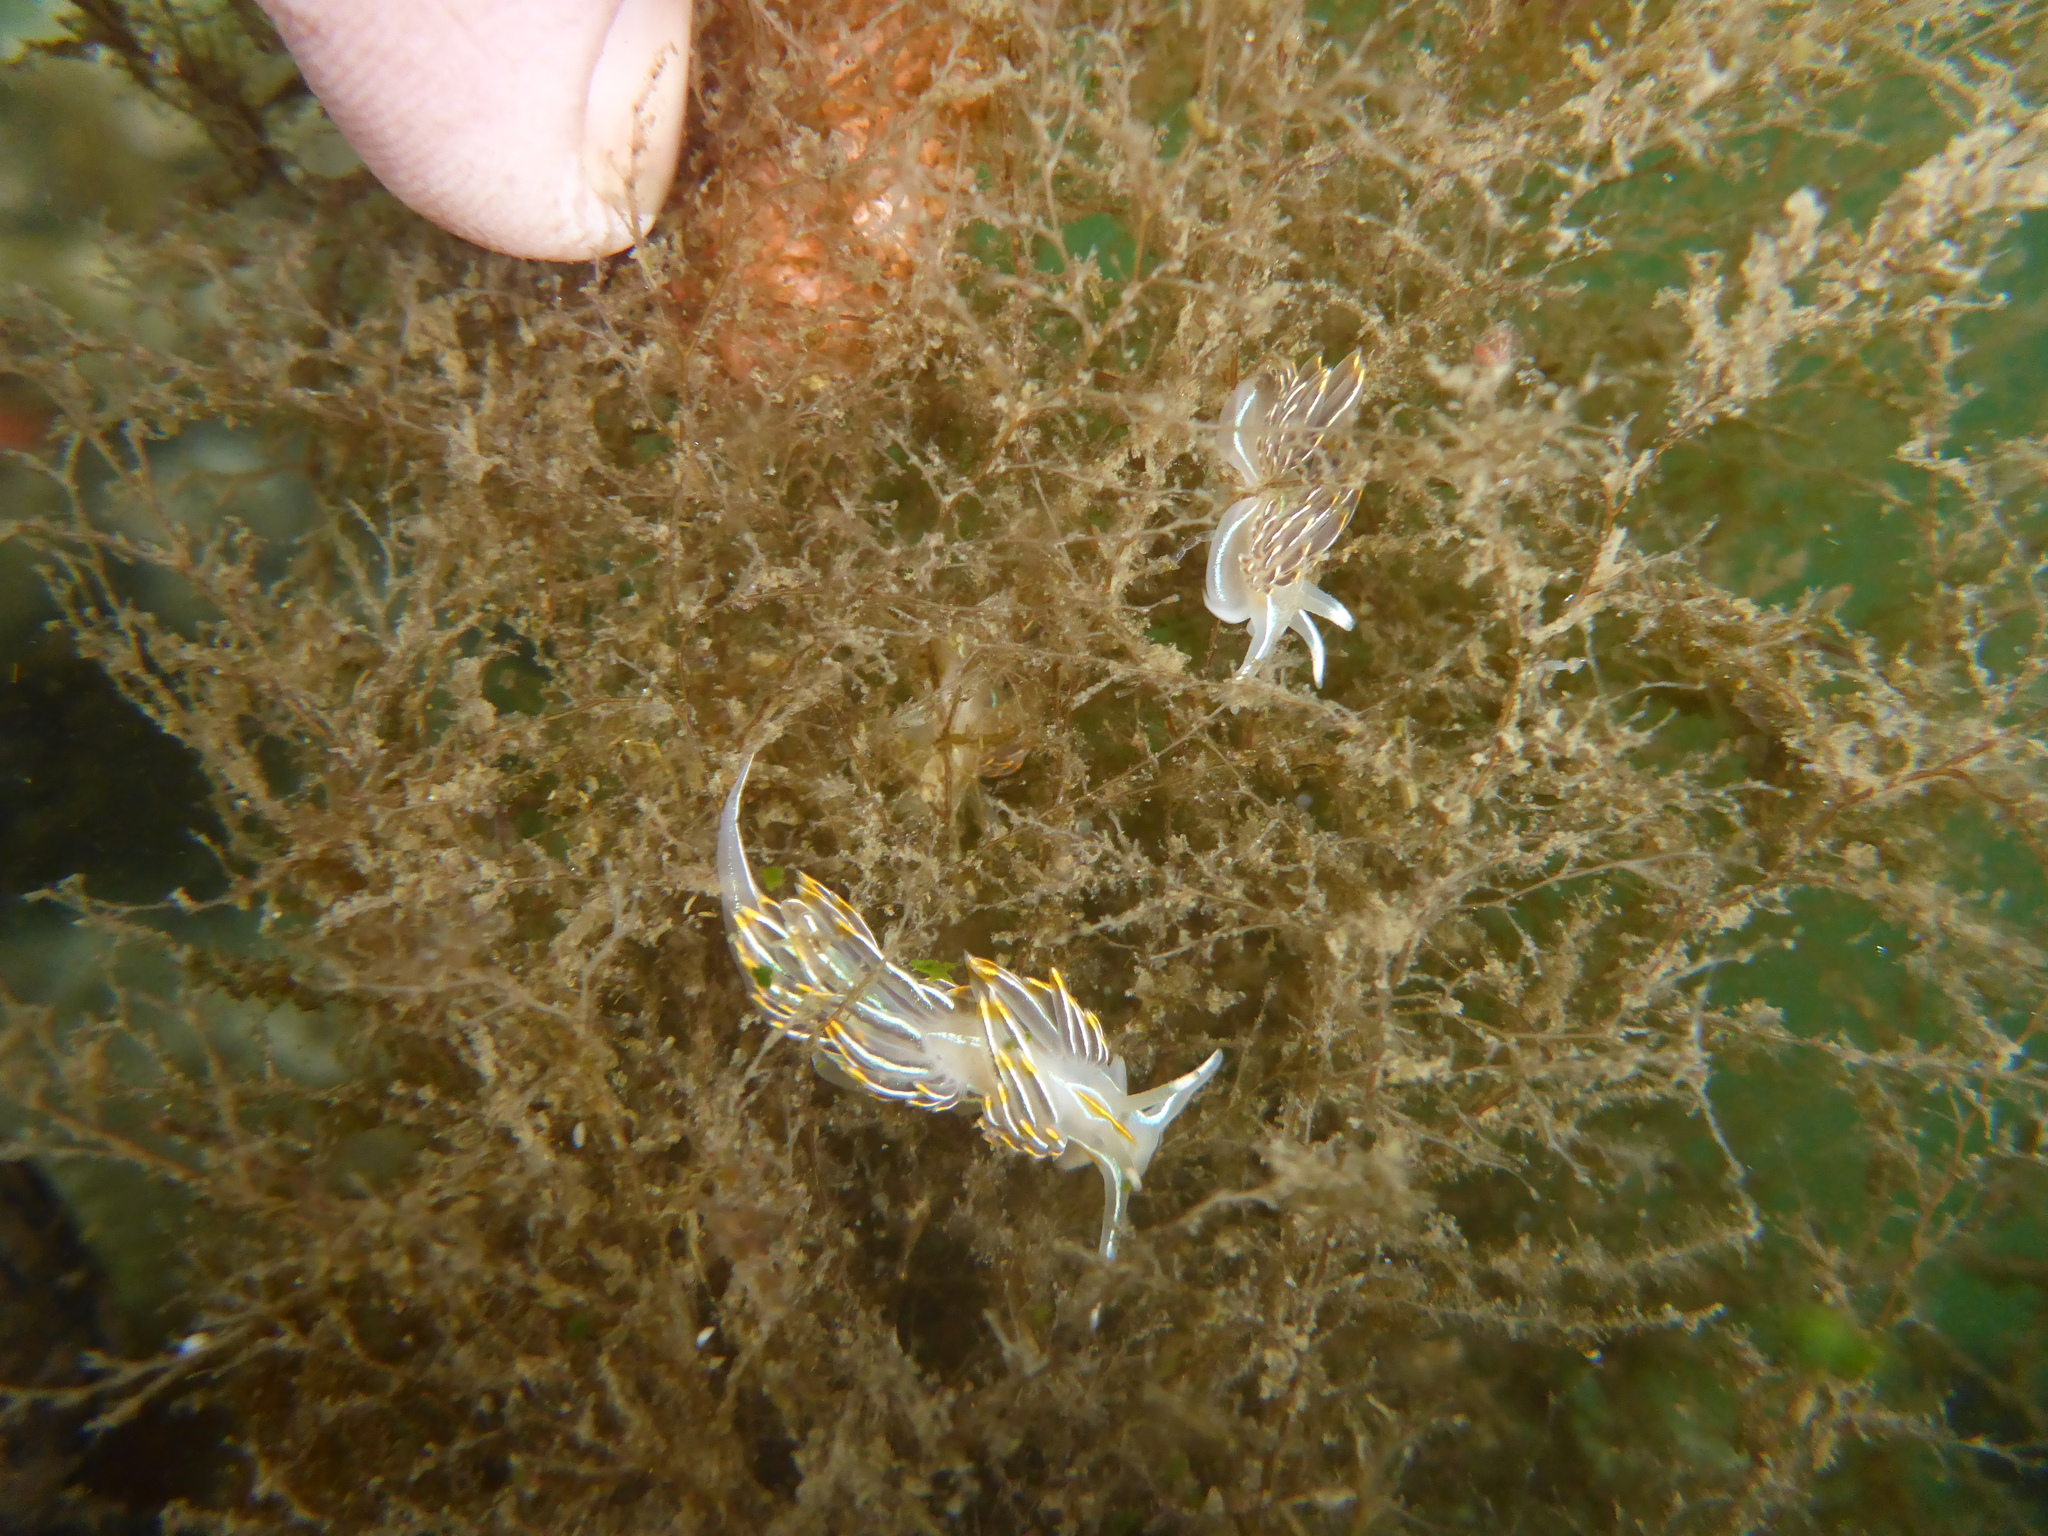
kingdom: Animalia
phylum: Mollusca
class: Gastropoda
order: Nudibranchia
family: Myrrhinidae
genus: Hermissenda
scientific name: Hermissenda crassicornis
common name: Hermissenda
